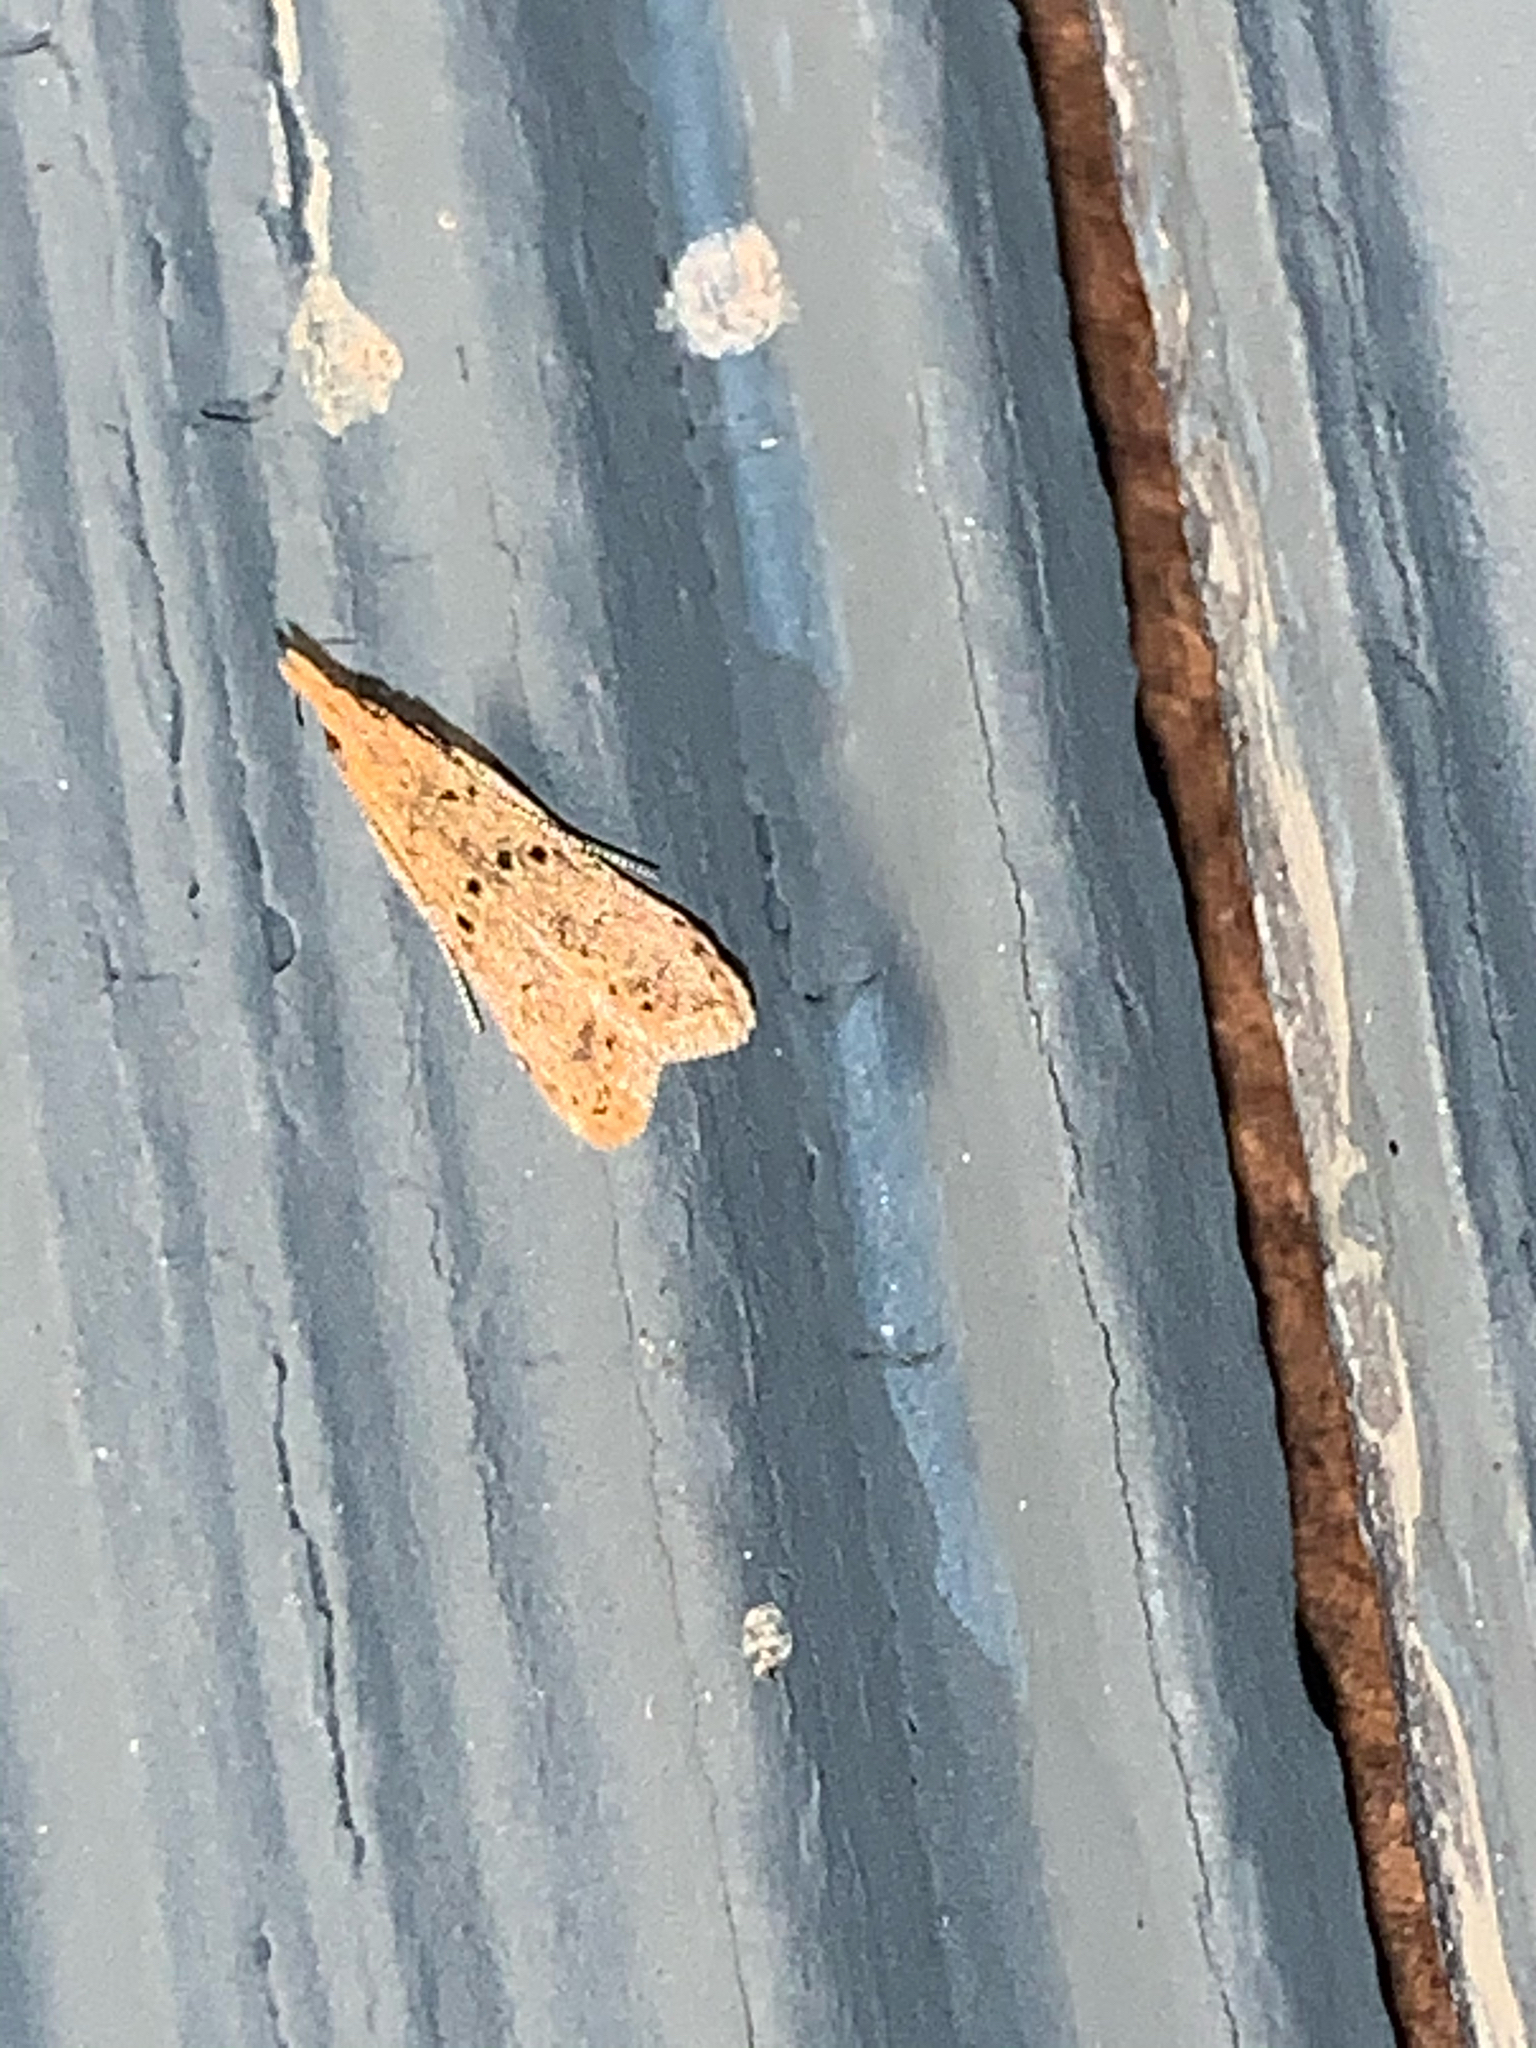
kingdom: Animalia
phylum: Arthropoda
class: Insecta
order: Lepidoptera
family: Gelechiidae
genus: Dichomeris
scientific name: Dichomeris punctipennella
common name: Many-spotted dichomeris moth
